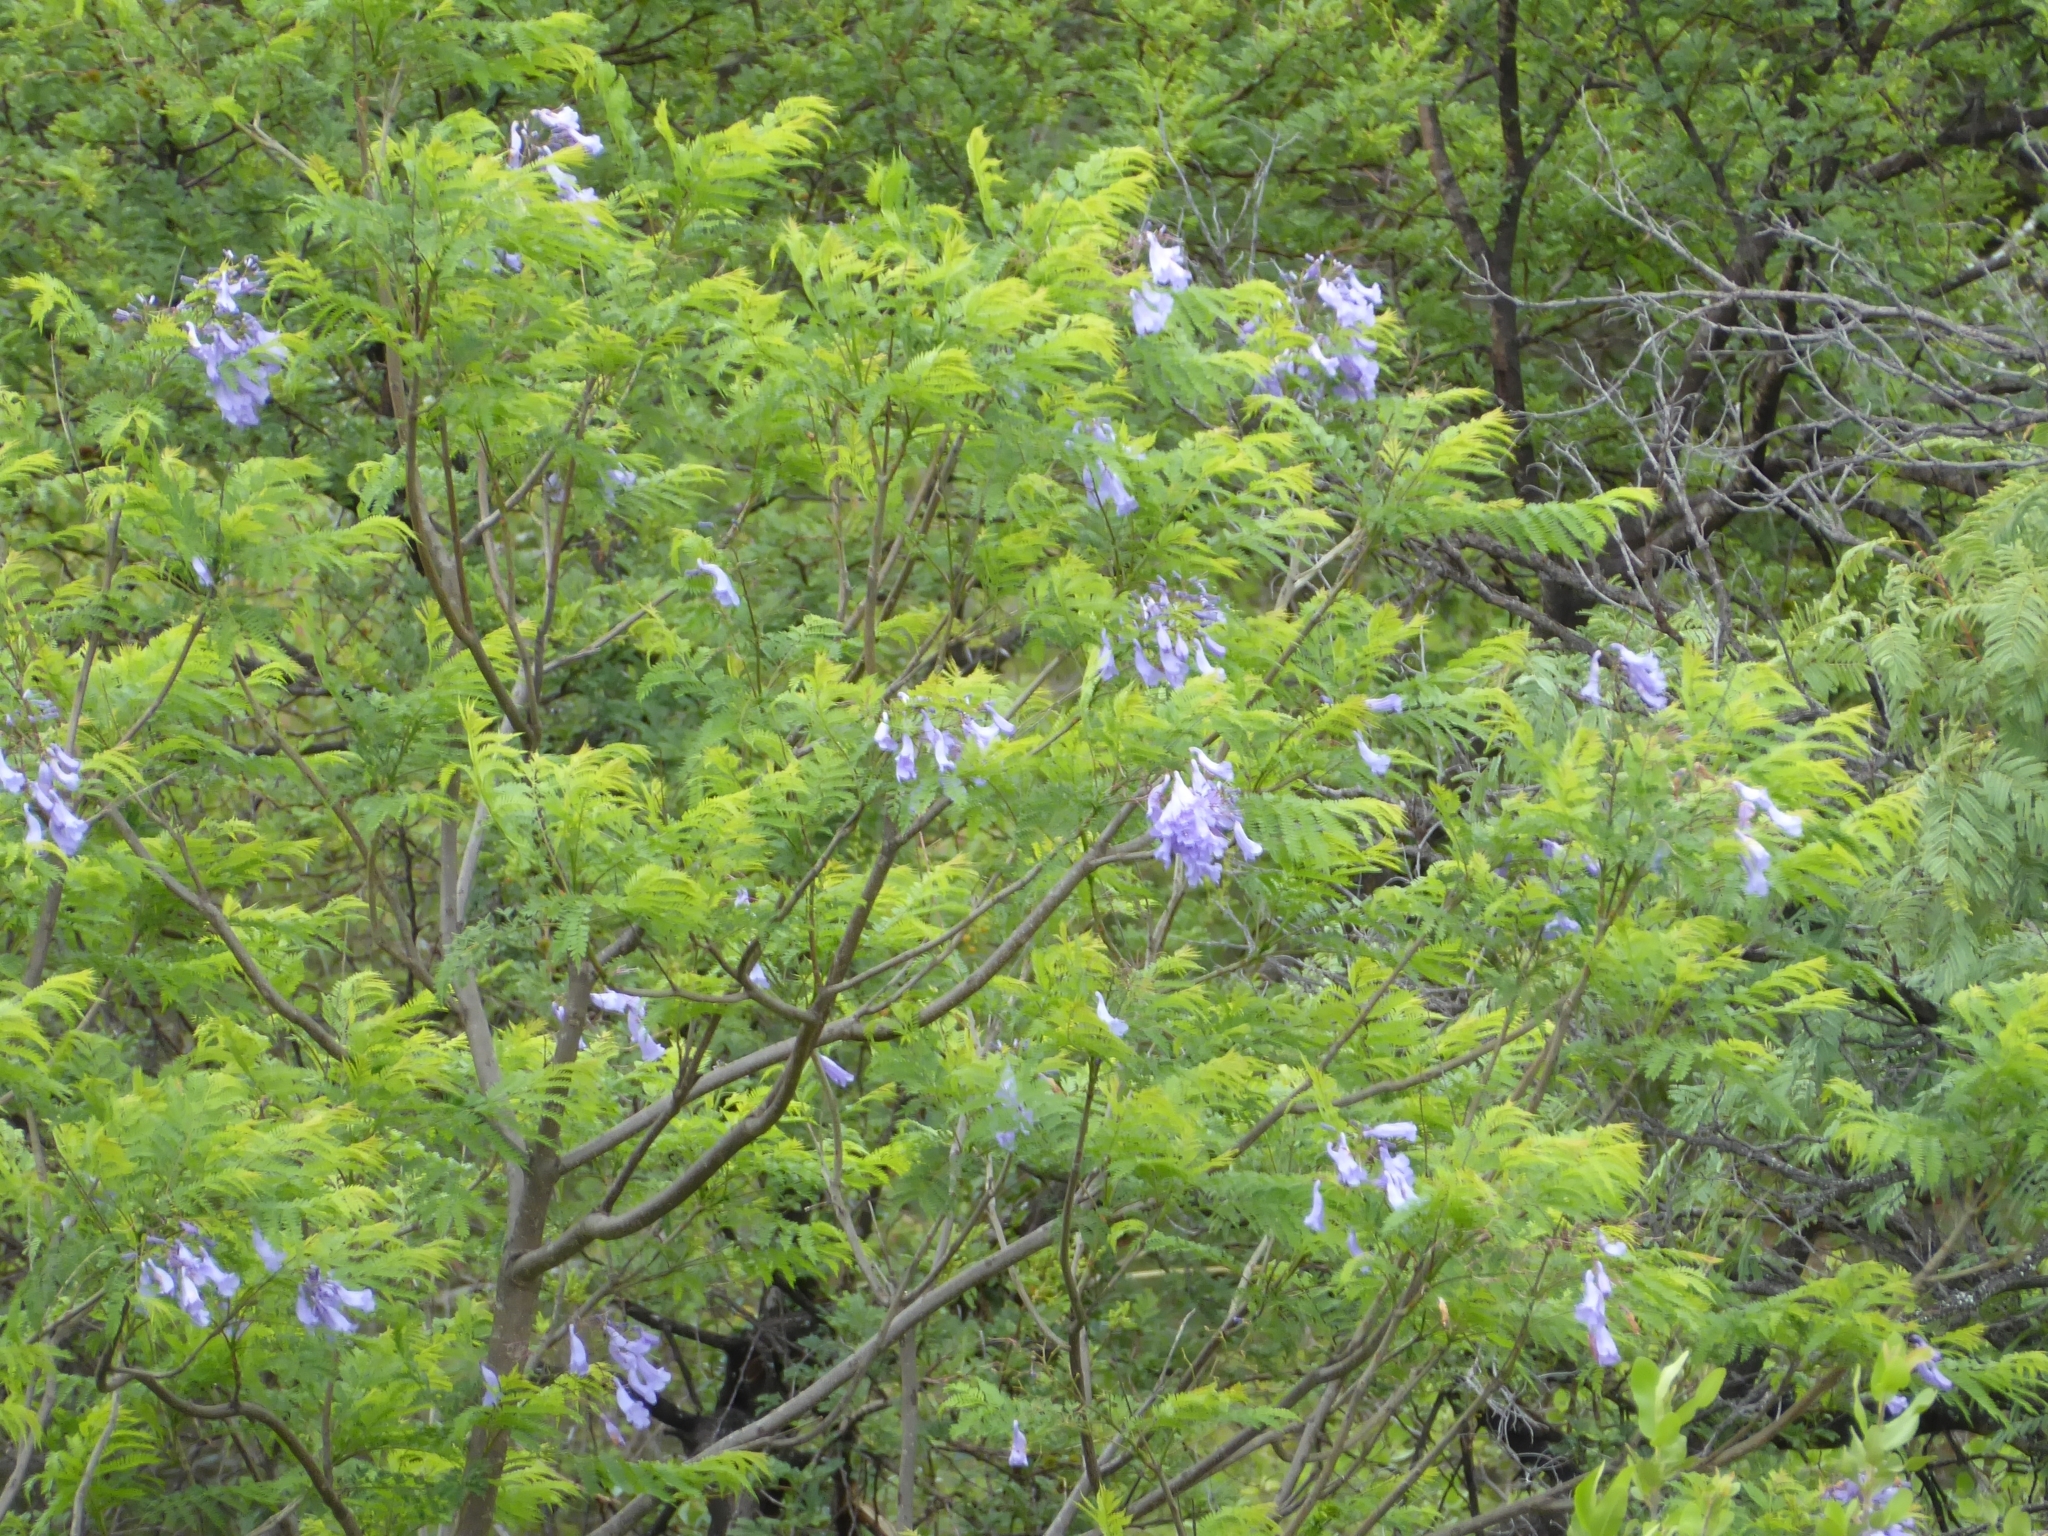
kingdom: Plantae
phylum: Tracheophyta
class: Magnoliopsida
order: Lamiales
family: Bignoniaceae
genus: Jacaranda
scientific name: Jacaranda mimosifolia
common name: Black poui
